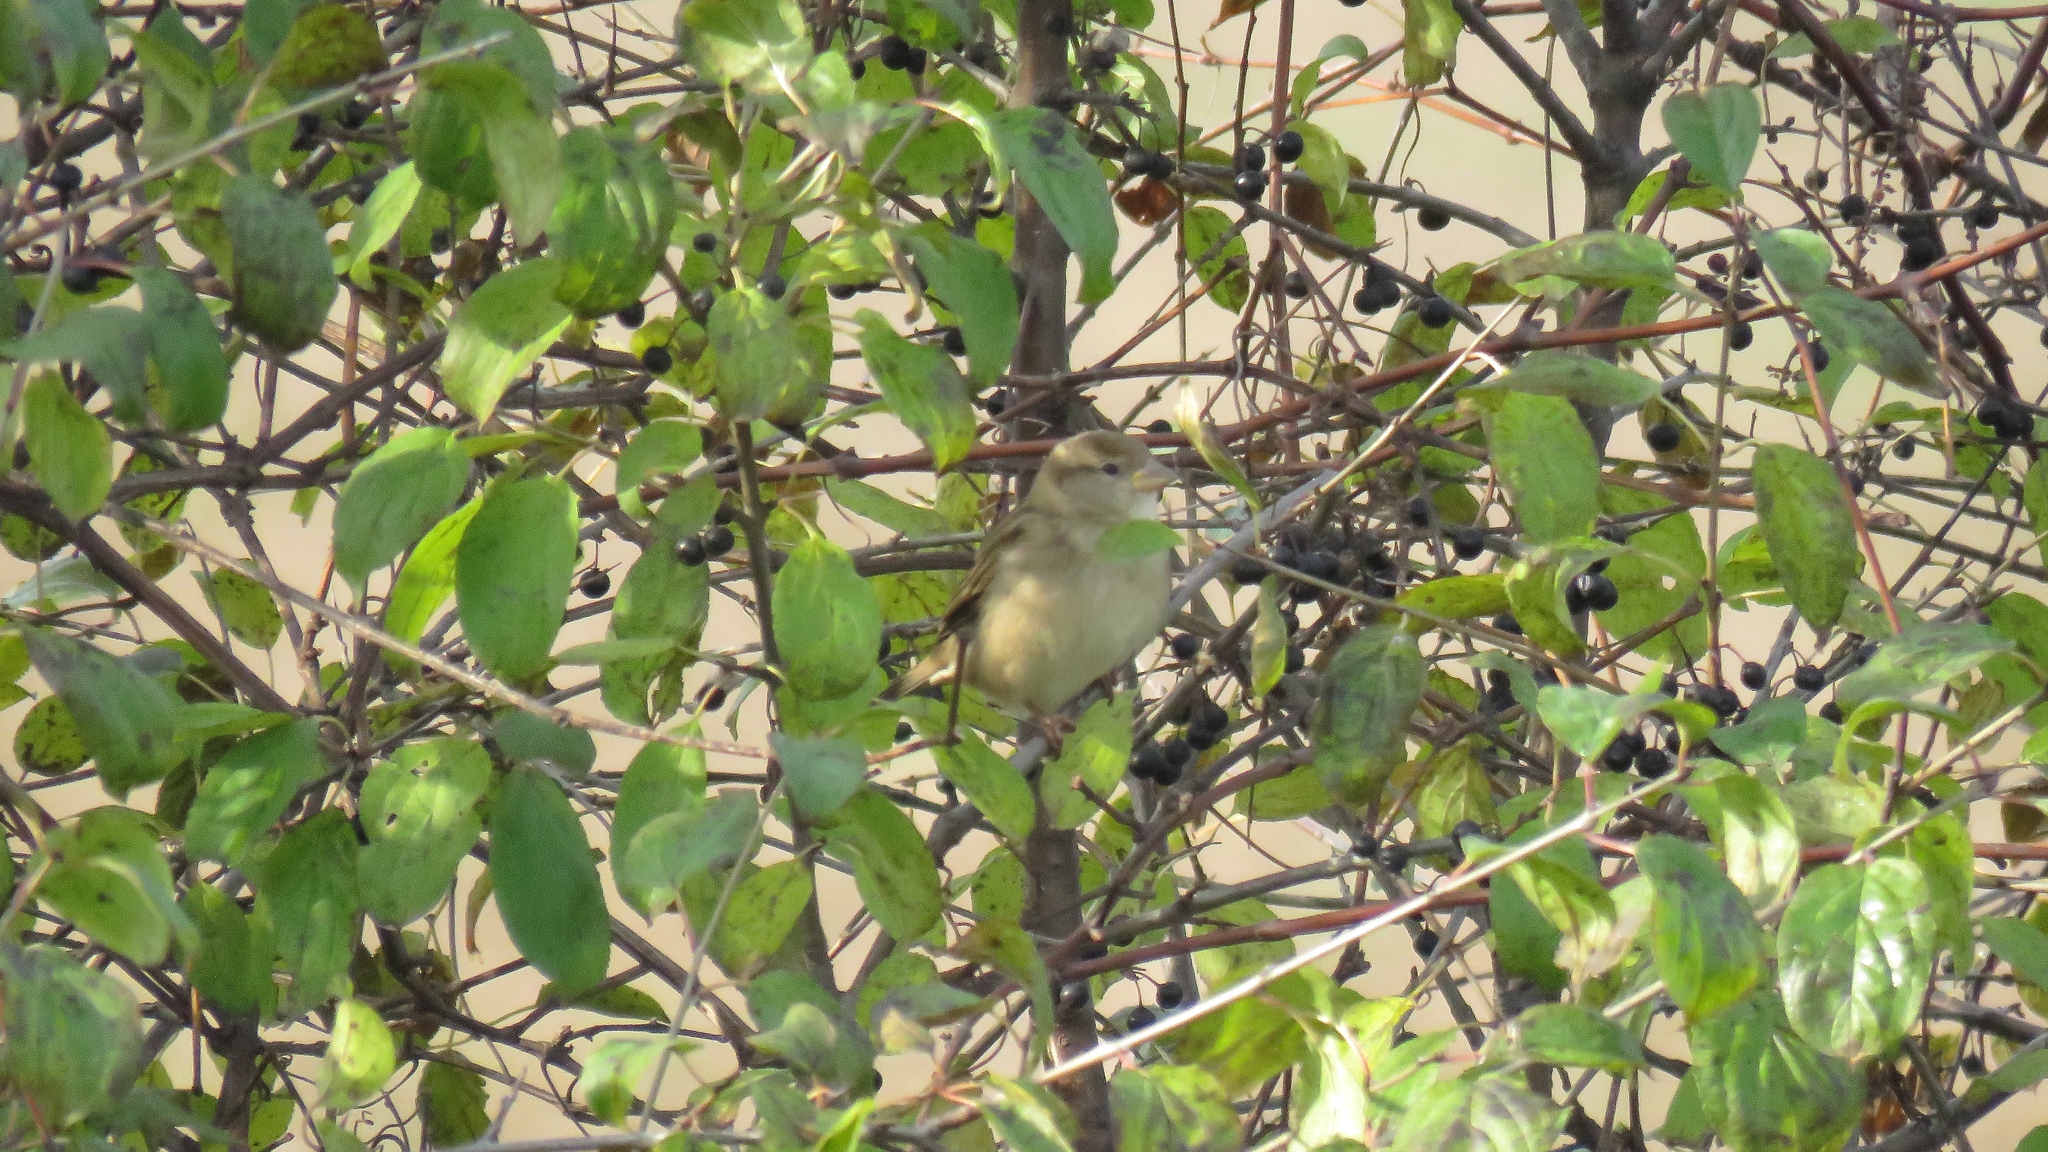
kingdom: Animalia
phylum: Chordata
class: Aves
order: Passeriformes
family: Passeridae
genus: Passer
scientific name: Passer domesticus
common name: House sparrow
